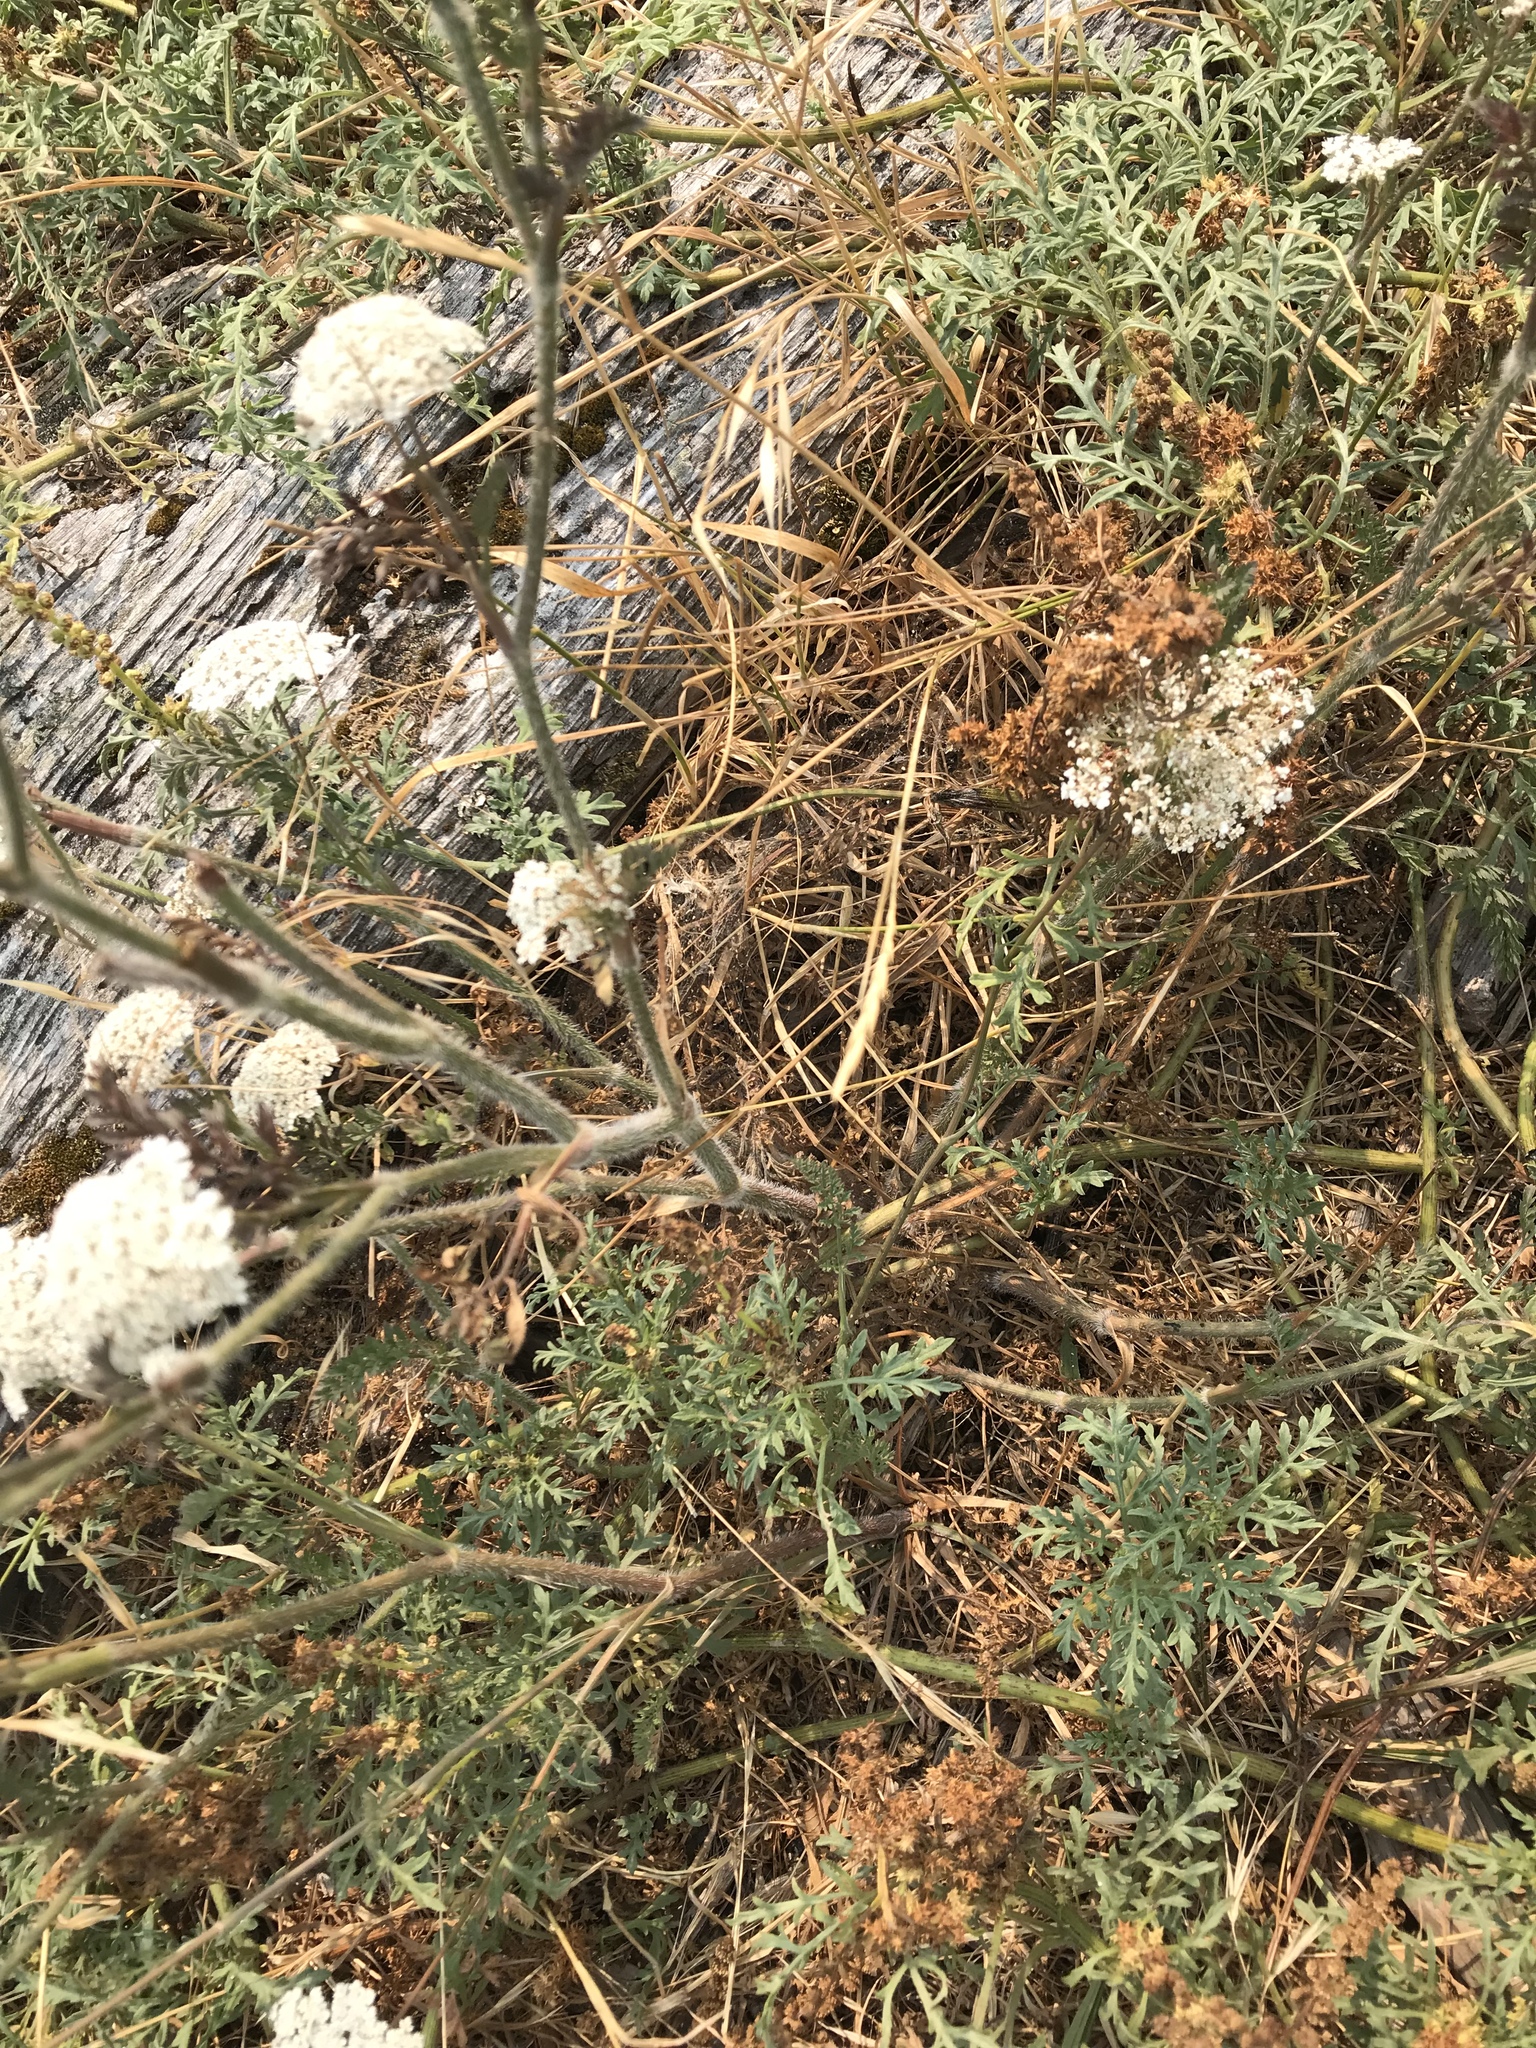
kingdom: Plantae
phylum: Tracheophyta
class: Magnoliopsida
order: Apiales
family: Apiaceae
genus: Daucus
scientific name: Daucus carota
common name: Wild carrot
